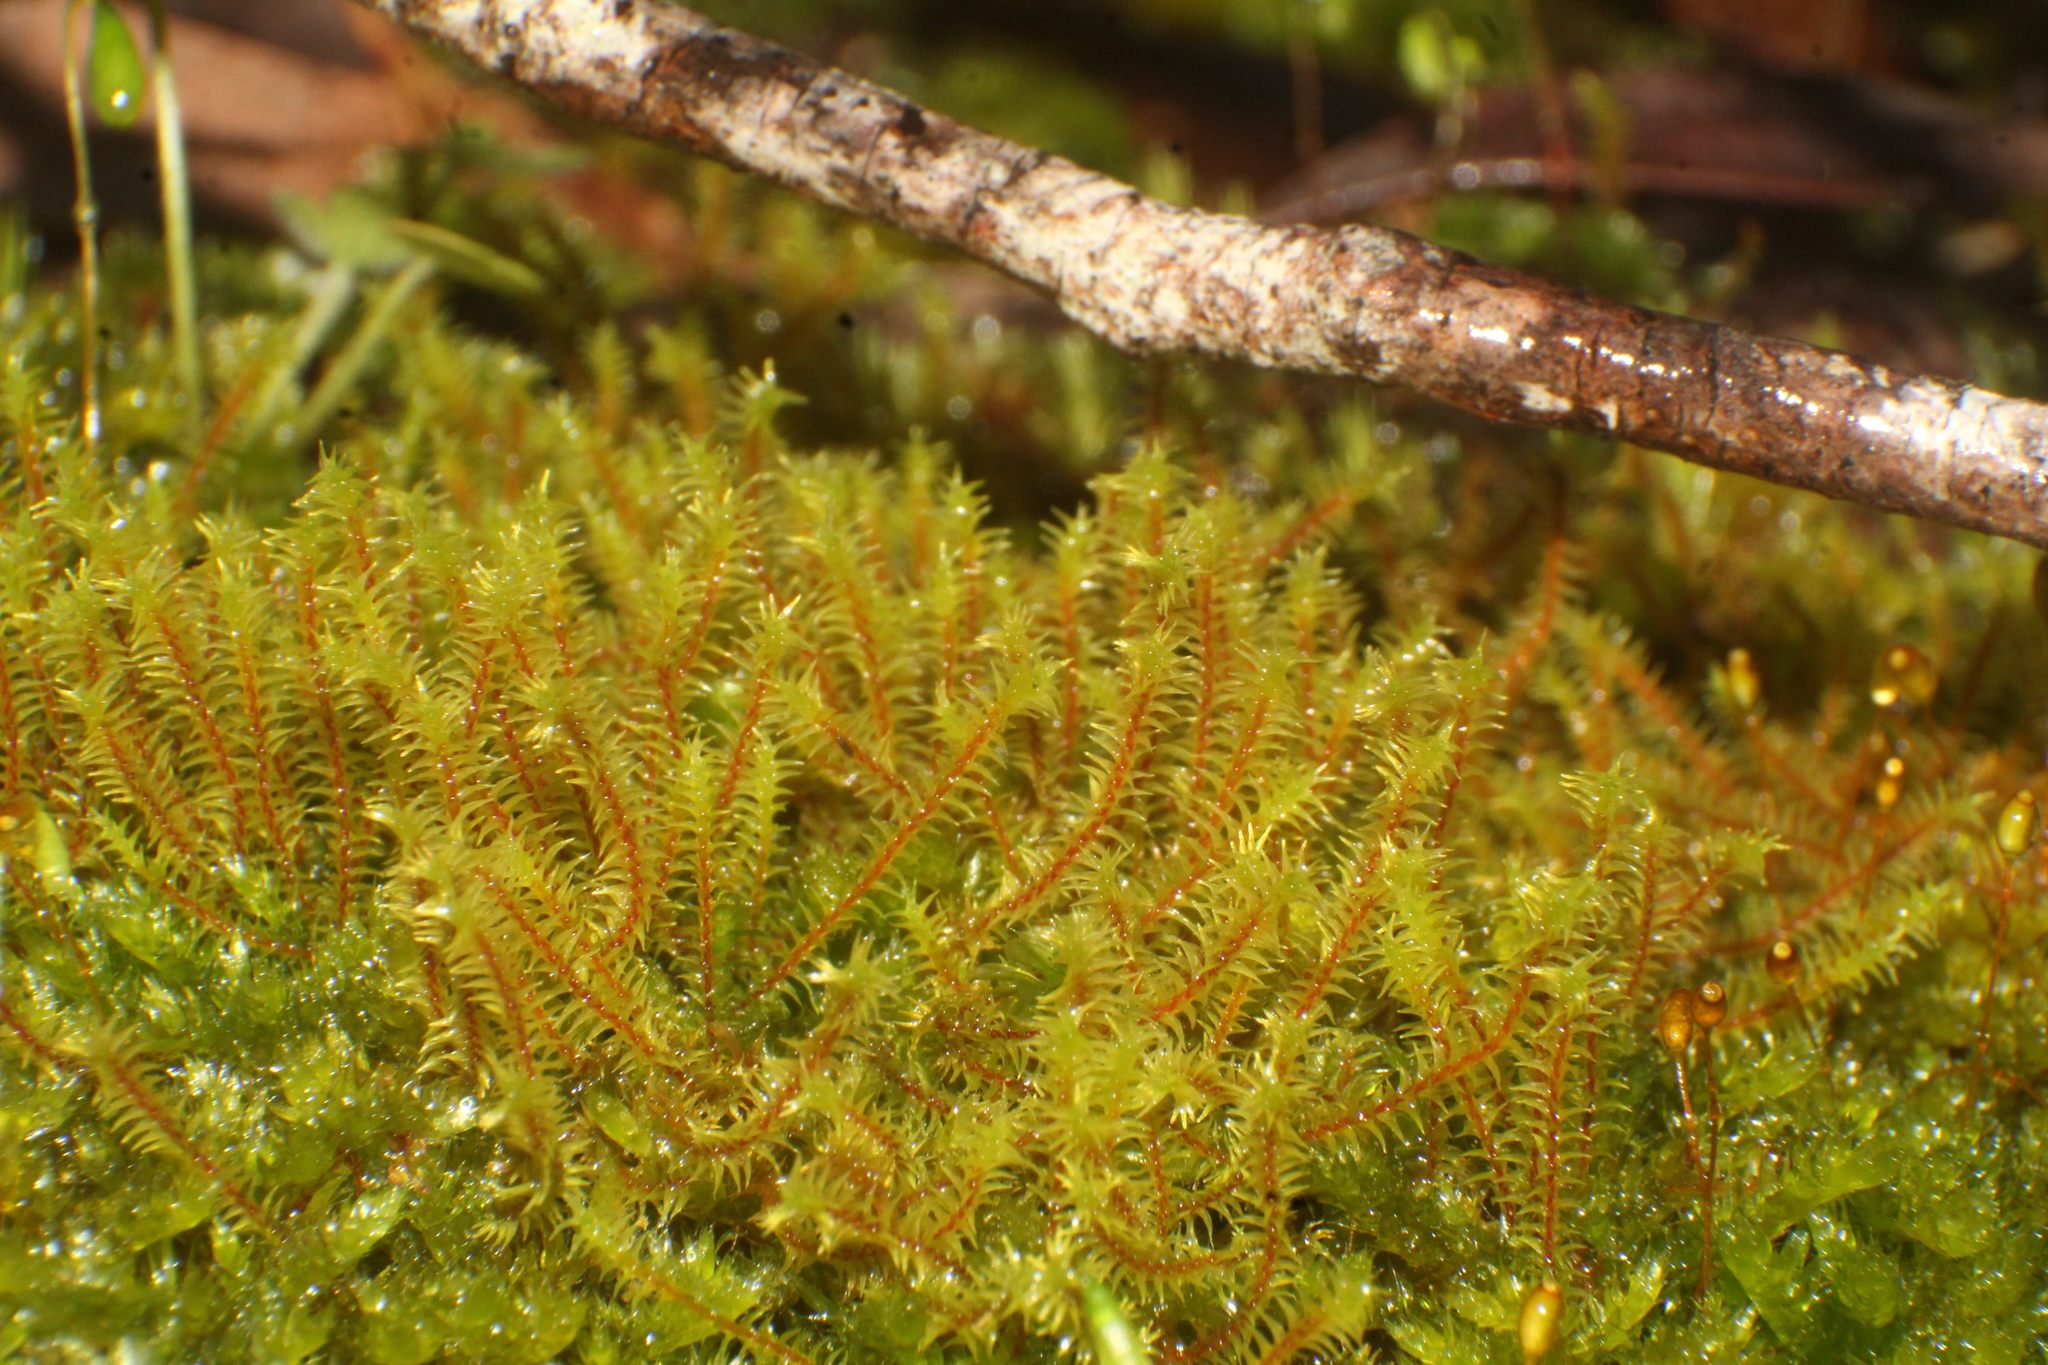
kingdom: Plantae
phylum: Bryophyta
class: Bryopsida
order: Pottiales
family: Pottiaceae
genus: Triquetrella
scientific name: Triquetrella papillata
